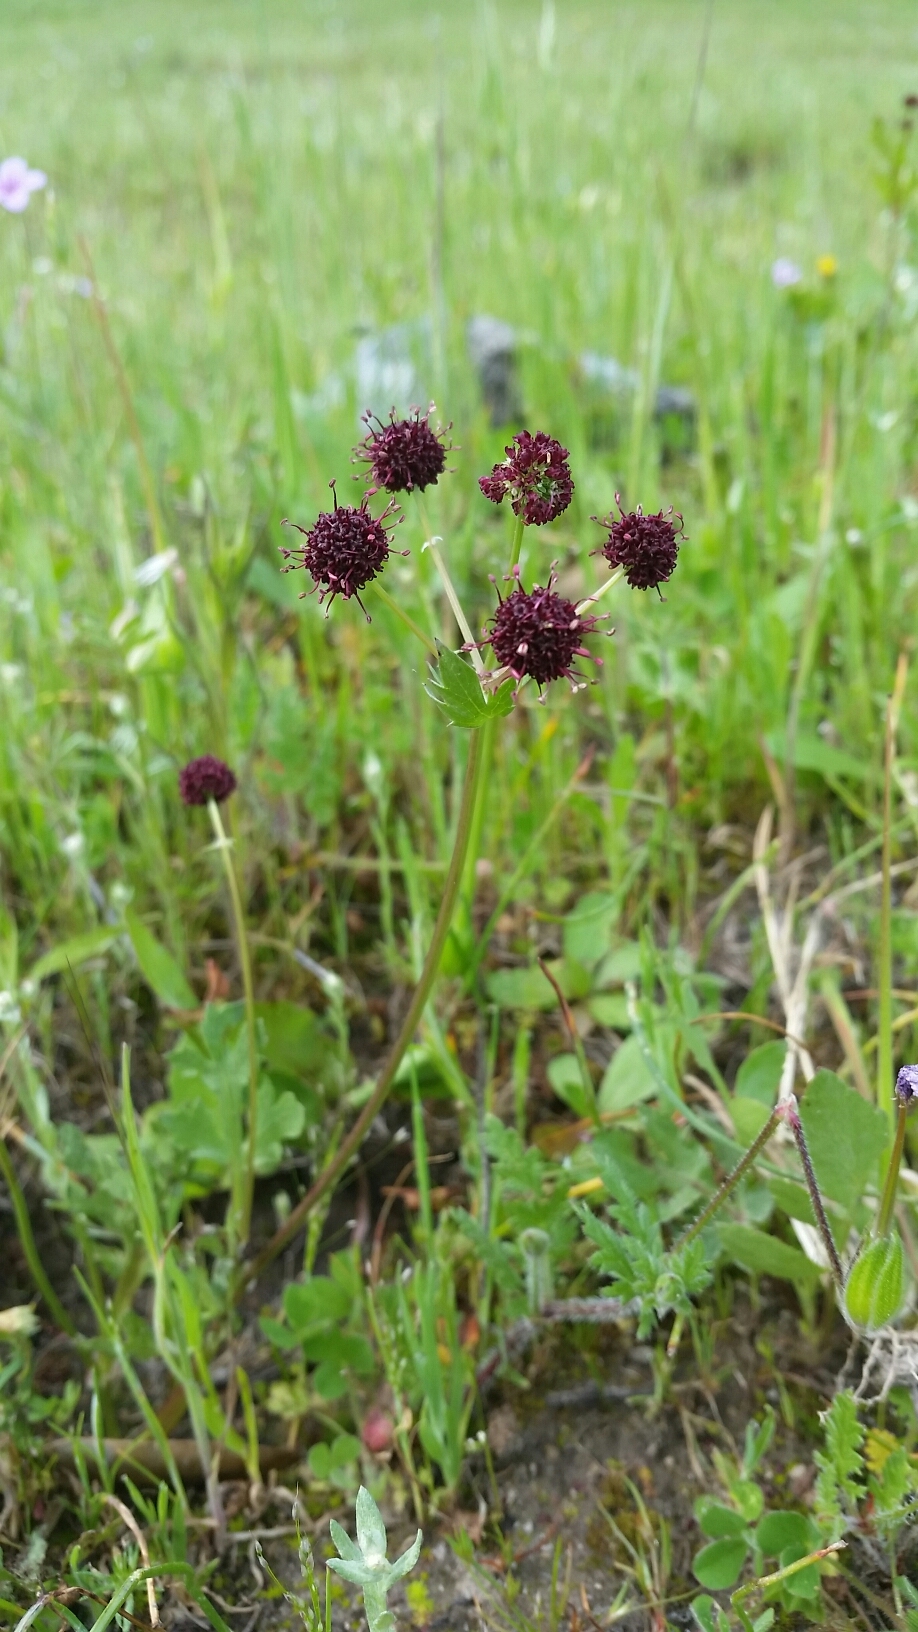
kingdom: Plantae
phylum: Tracheophyta
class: Magnoliopsida
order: Apiales
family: Apiaceae
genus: Sanicula
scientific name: Sanicula bipinnatifida
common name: Shoe-buttons
